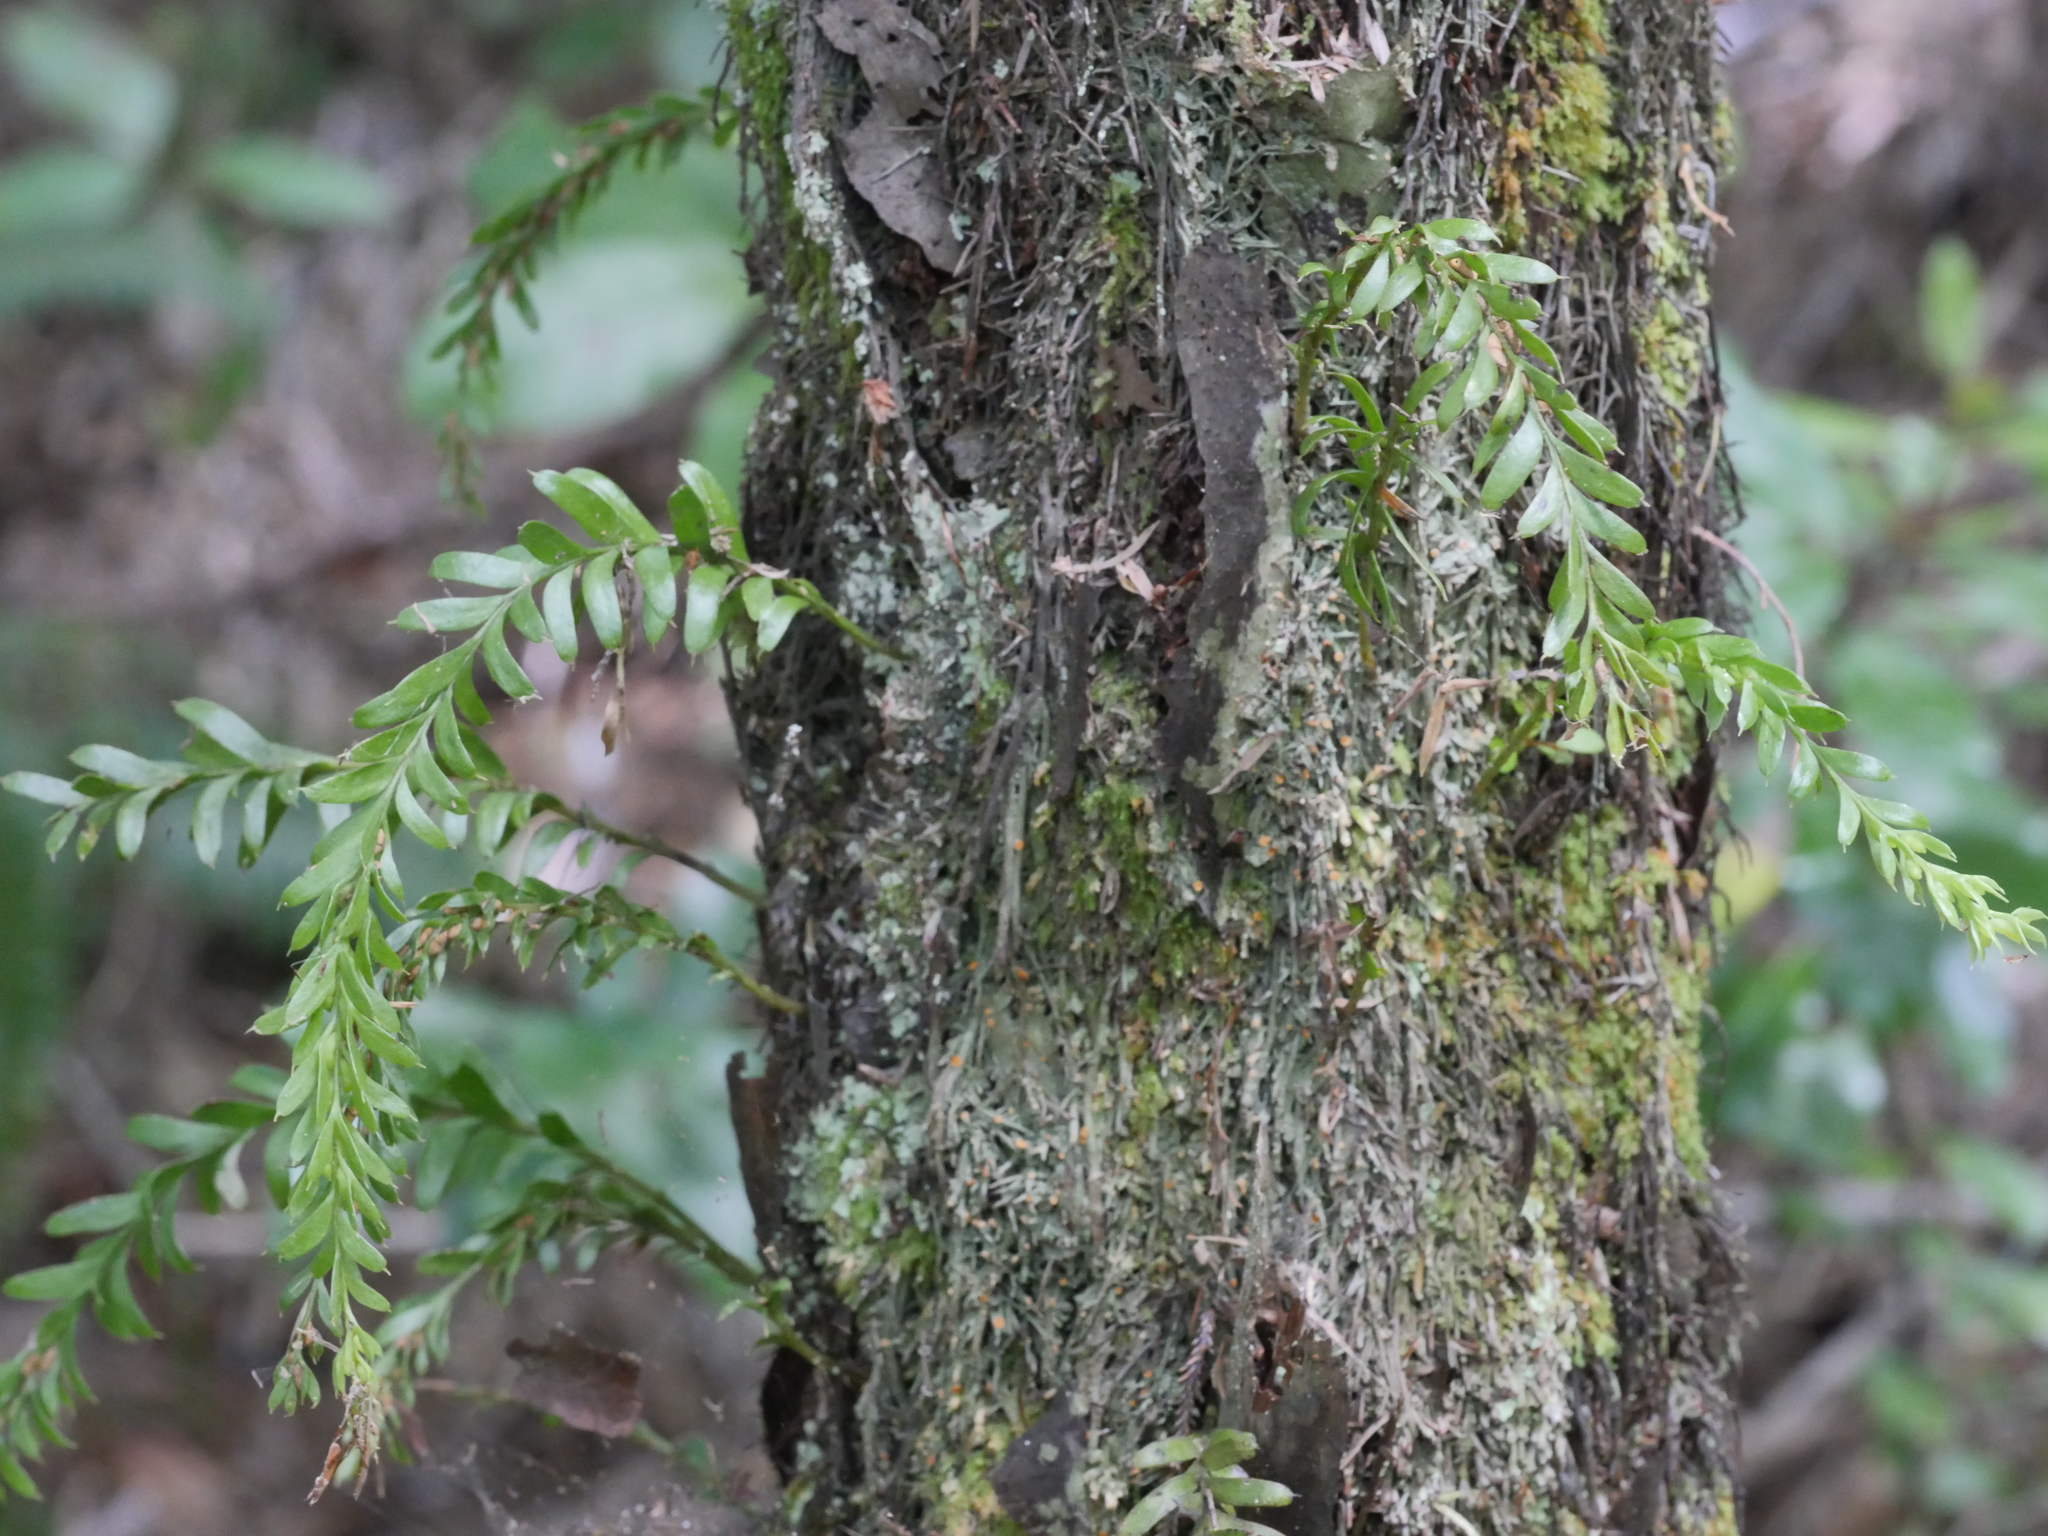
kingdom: Plantae
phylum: Tracheophyta
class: Polypodiopsida
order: Psilotales
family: Psilotaceae
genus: Tmesipteris
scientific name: Tmesipteris tannensis
